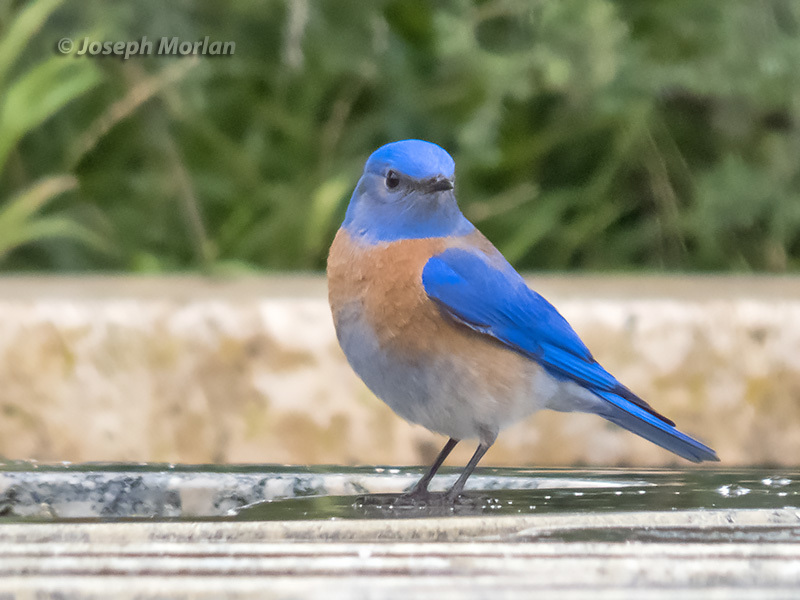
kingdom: Animalia
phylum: Chordata
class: Aves
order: Passeriformes
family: Turdidae
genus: Sialia
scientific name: Sialia mexicana
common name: Western bluebird
